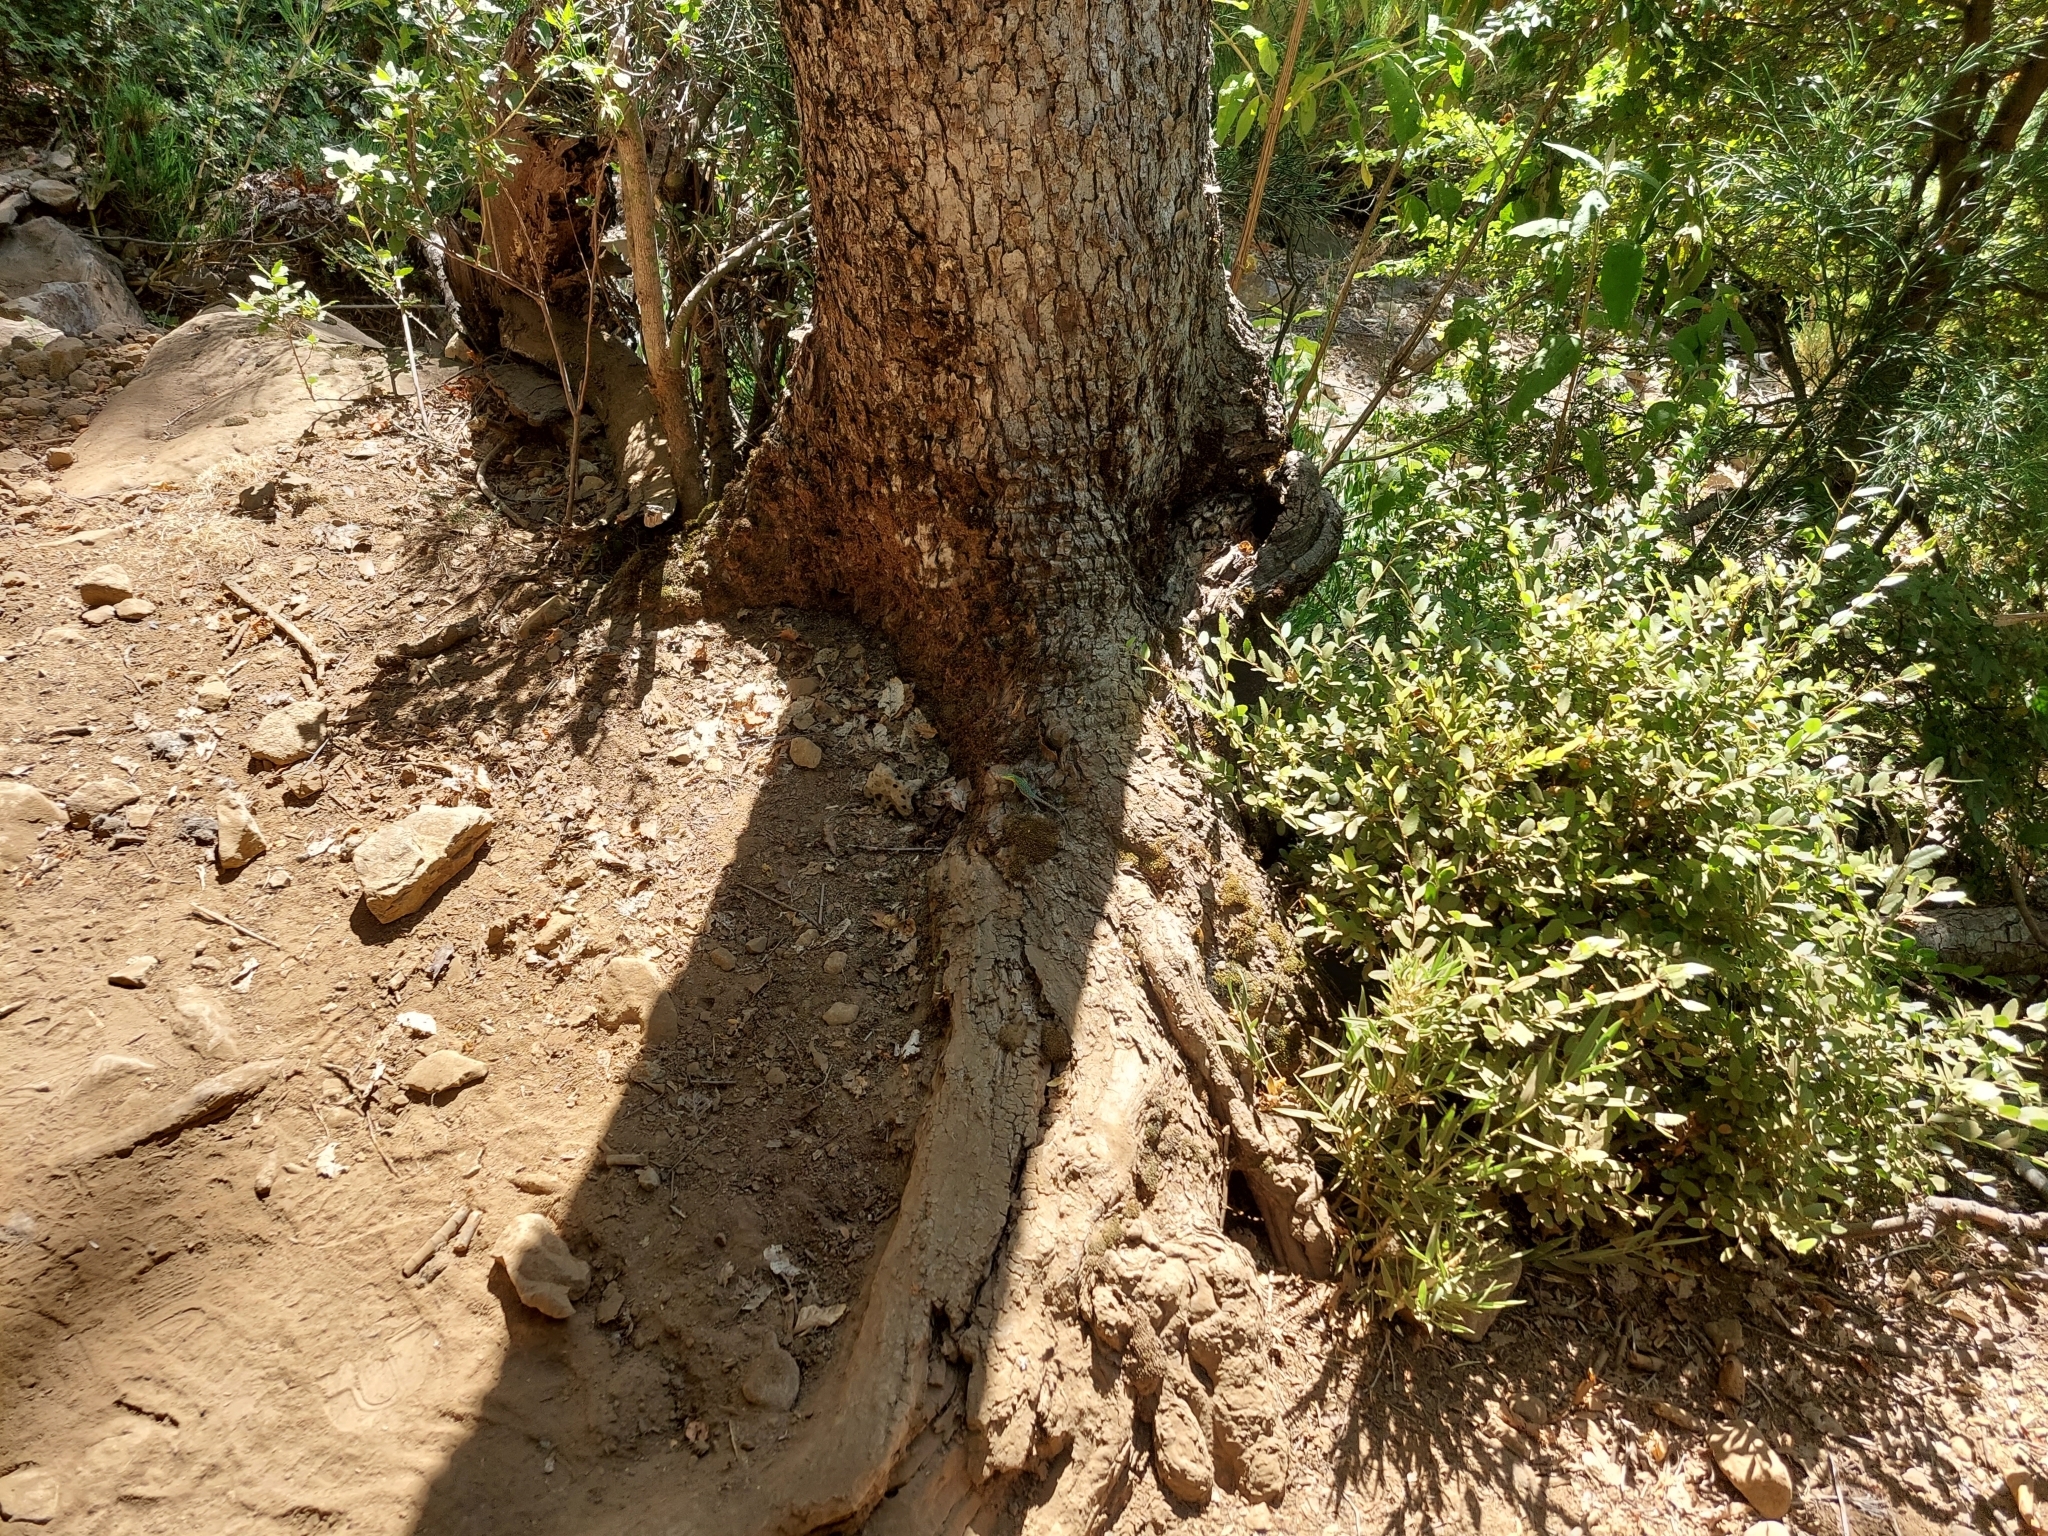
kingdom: Animalia
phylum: Chordata
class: Squamata
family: Liolaemidae
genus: Liolaemus
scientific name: Liolaemus tenuis
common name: Thin tree iguana
